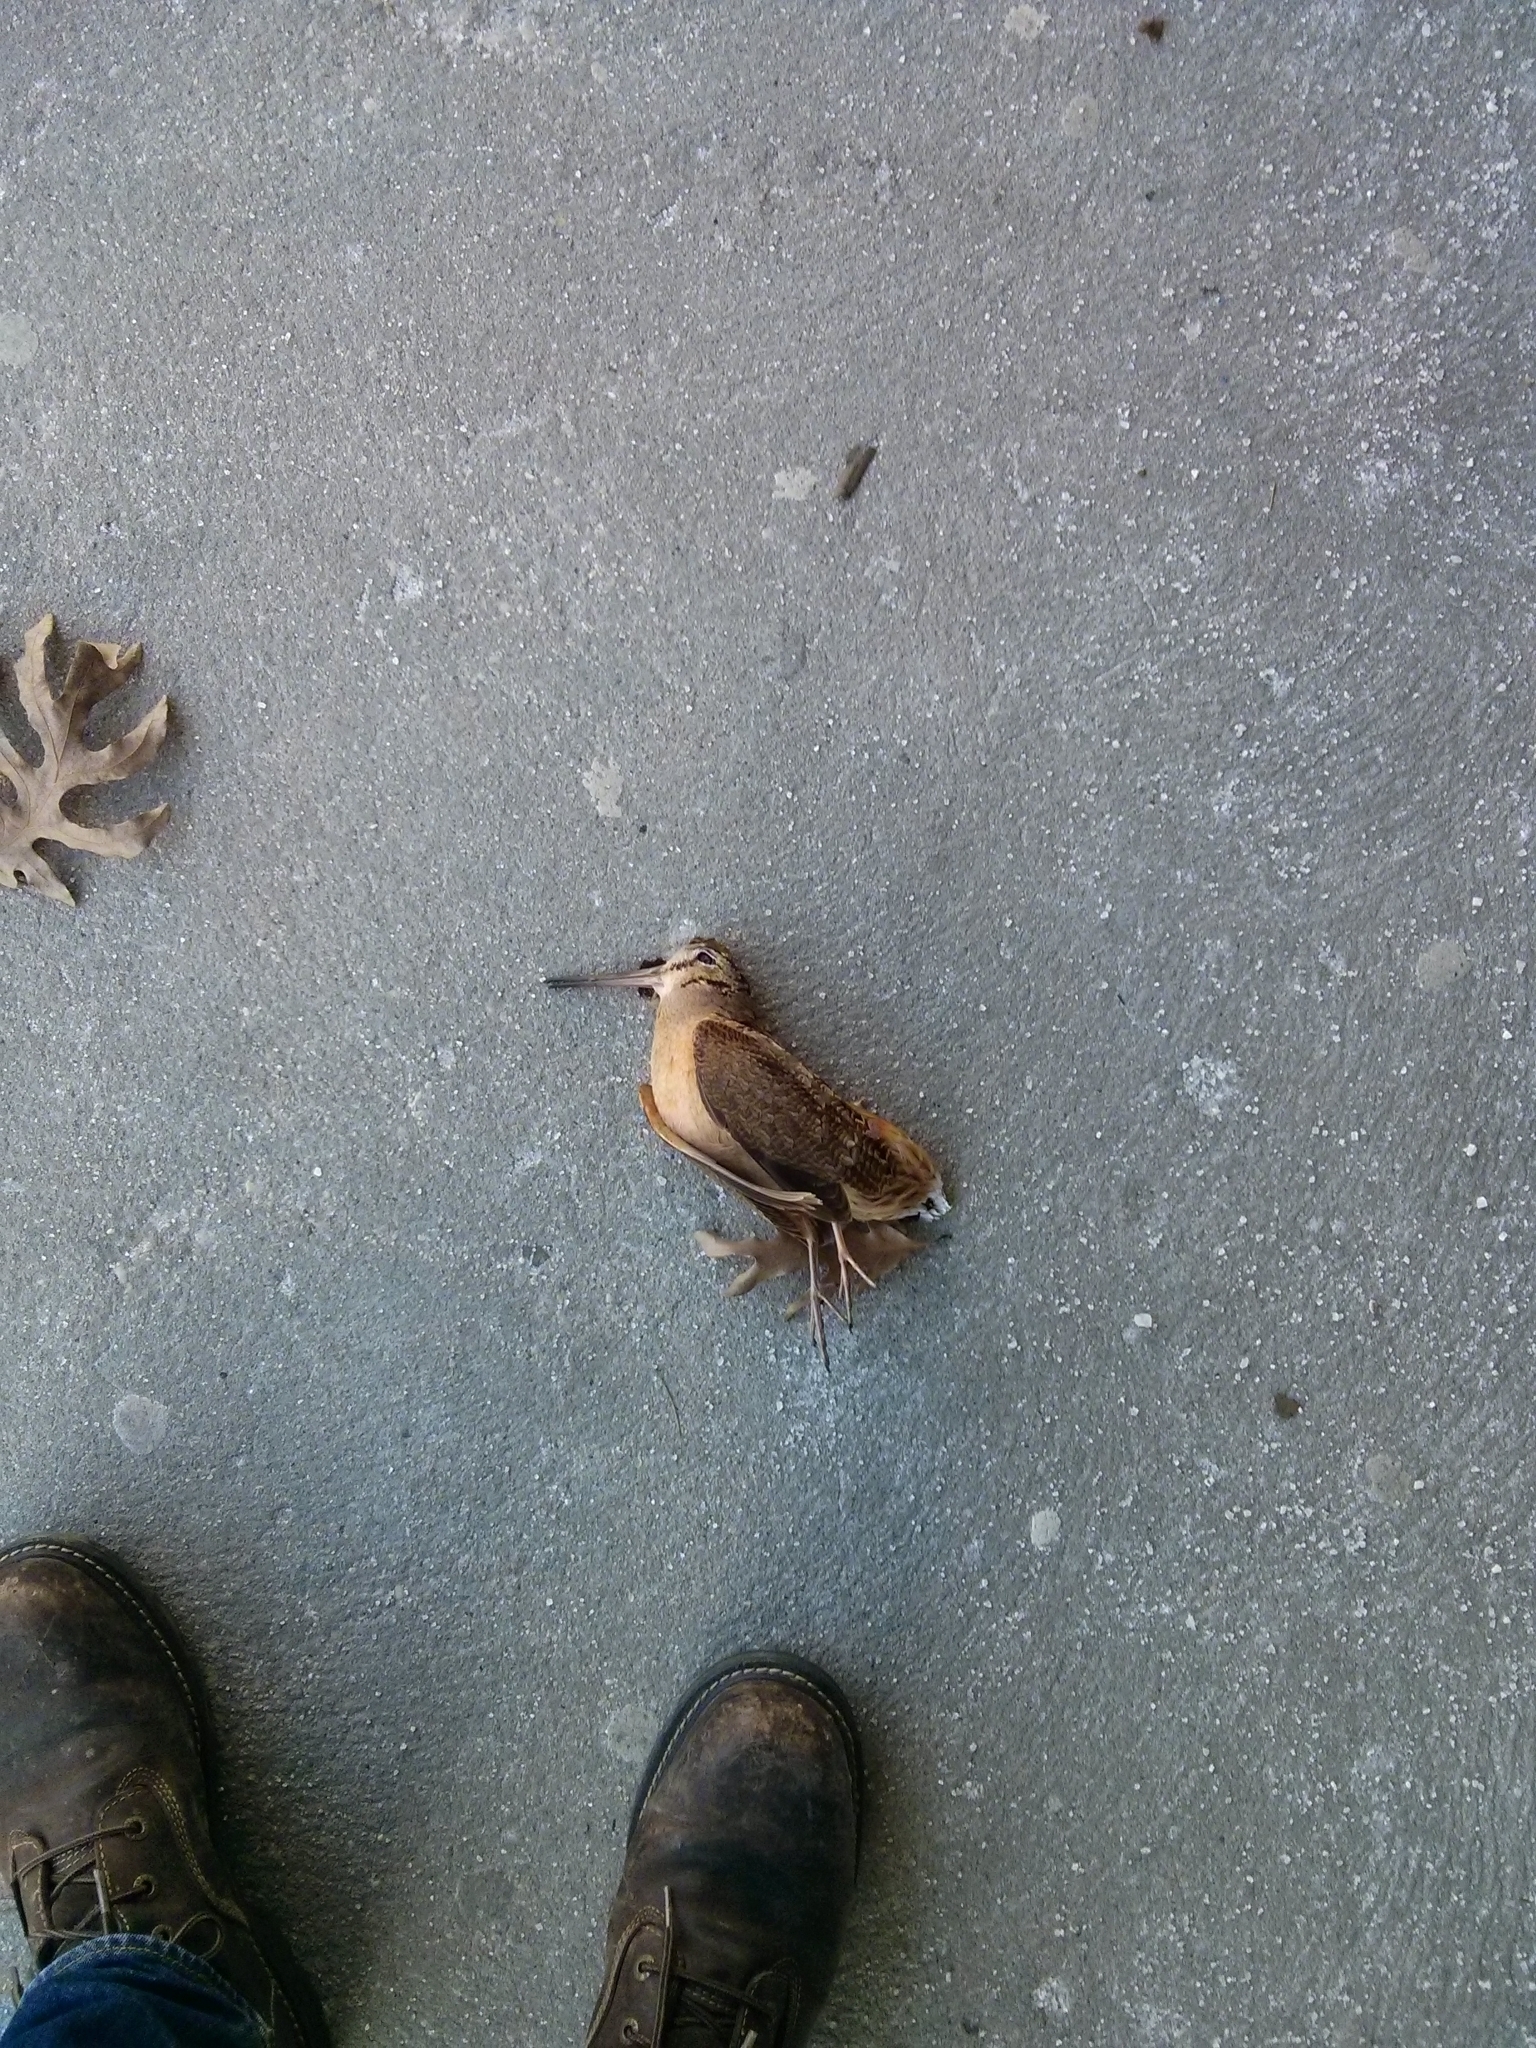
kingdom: Animalia
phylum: Chordata
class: Aves
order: Charadriiformes
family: Scolopacidae
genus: Scolopax
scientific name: Scolopax minor
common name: American woodcock
